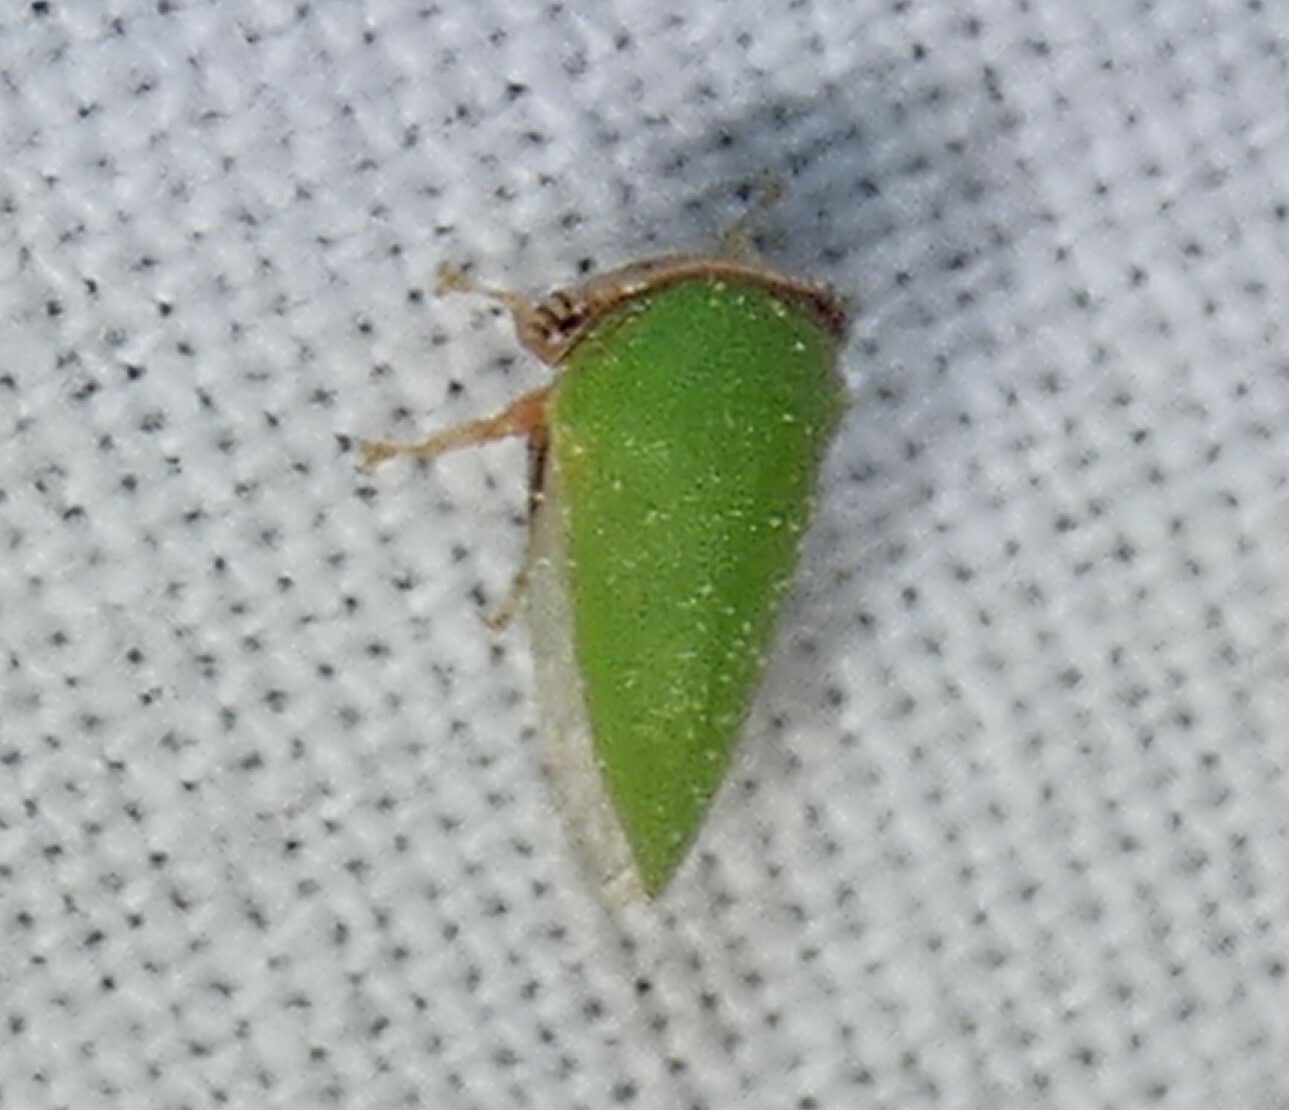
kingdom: Animalia
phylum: Arthropoda
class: Insecta
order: Hemiptera
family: Membracidae
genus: Idioderma
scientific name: Idioderma virescens
